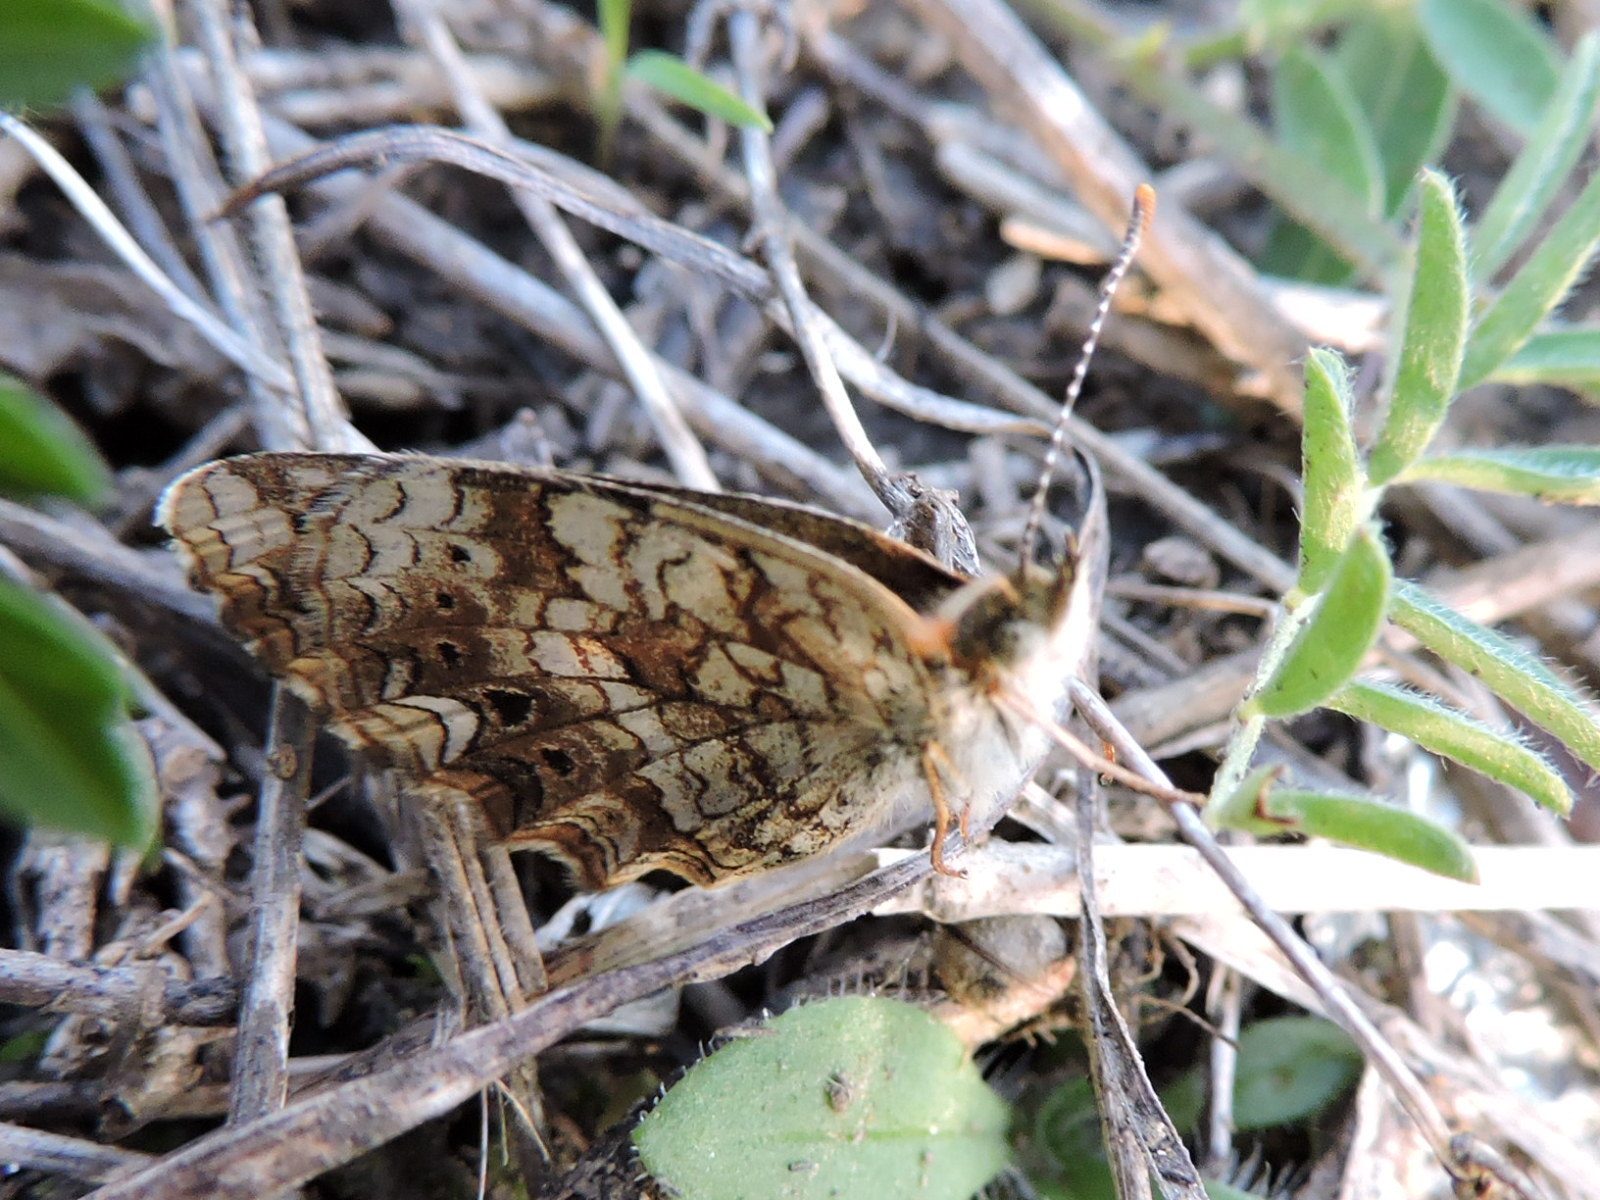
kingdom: Animalia
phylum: Arthropoda
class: Insecta
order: Lepidoptera
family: Nymphalidae
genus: Phyciodes
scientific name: Phyciodes phaon
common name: Phaon crescent
